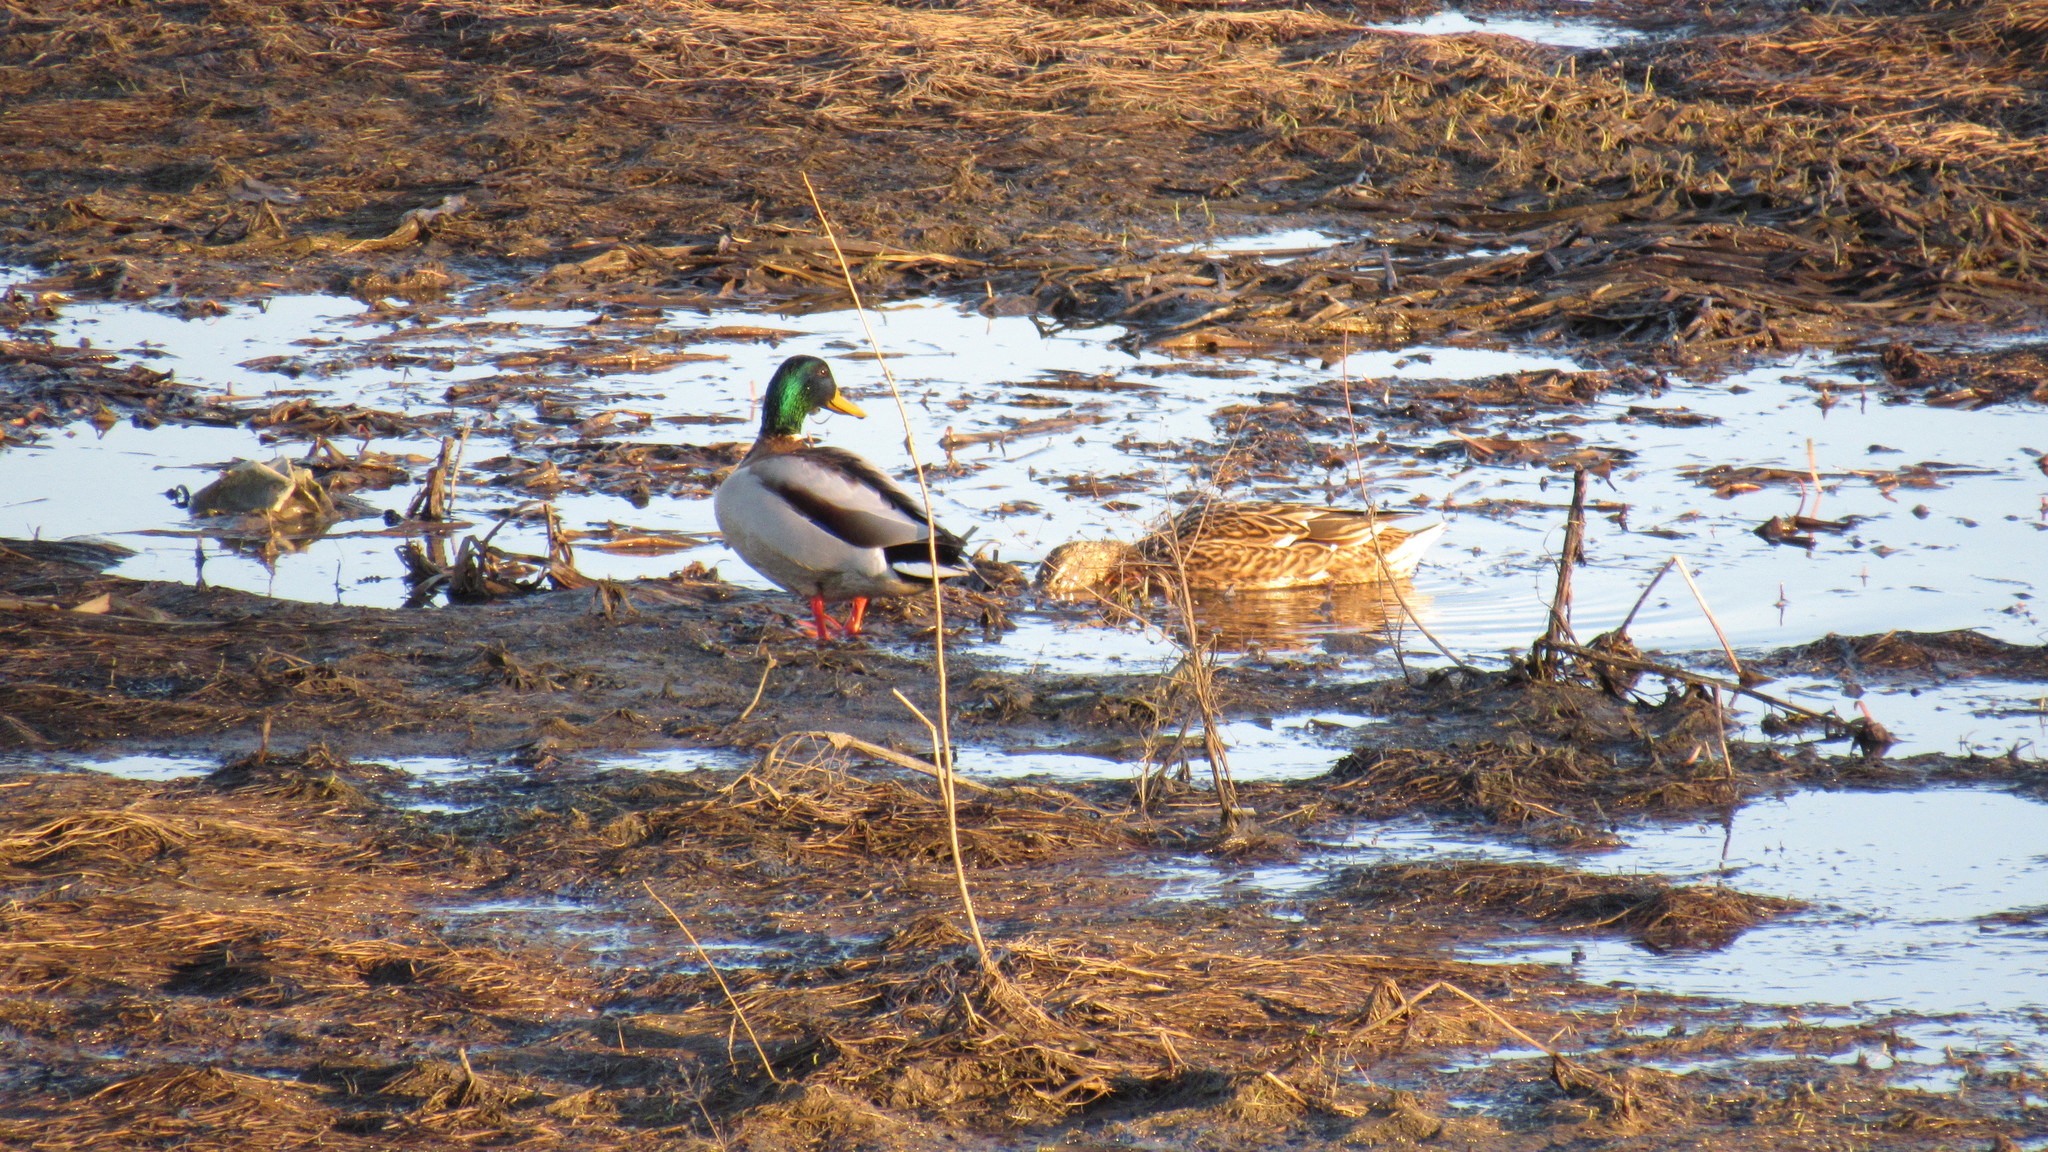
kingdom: Animalia
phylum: Chordata
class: Aves
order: Anseriformes
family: Anatidae
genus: Anas
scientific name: Anas platyrhynchos
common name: Mallard
